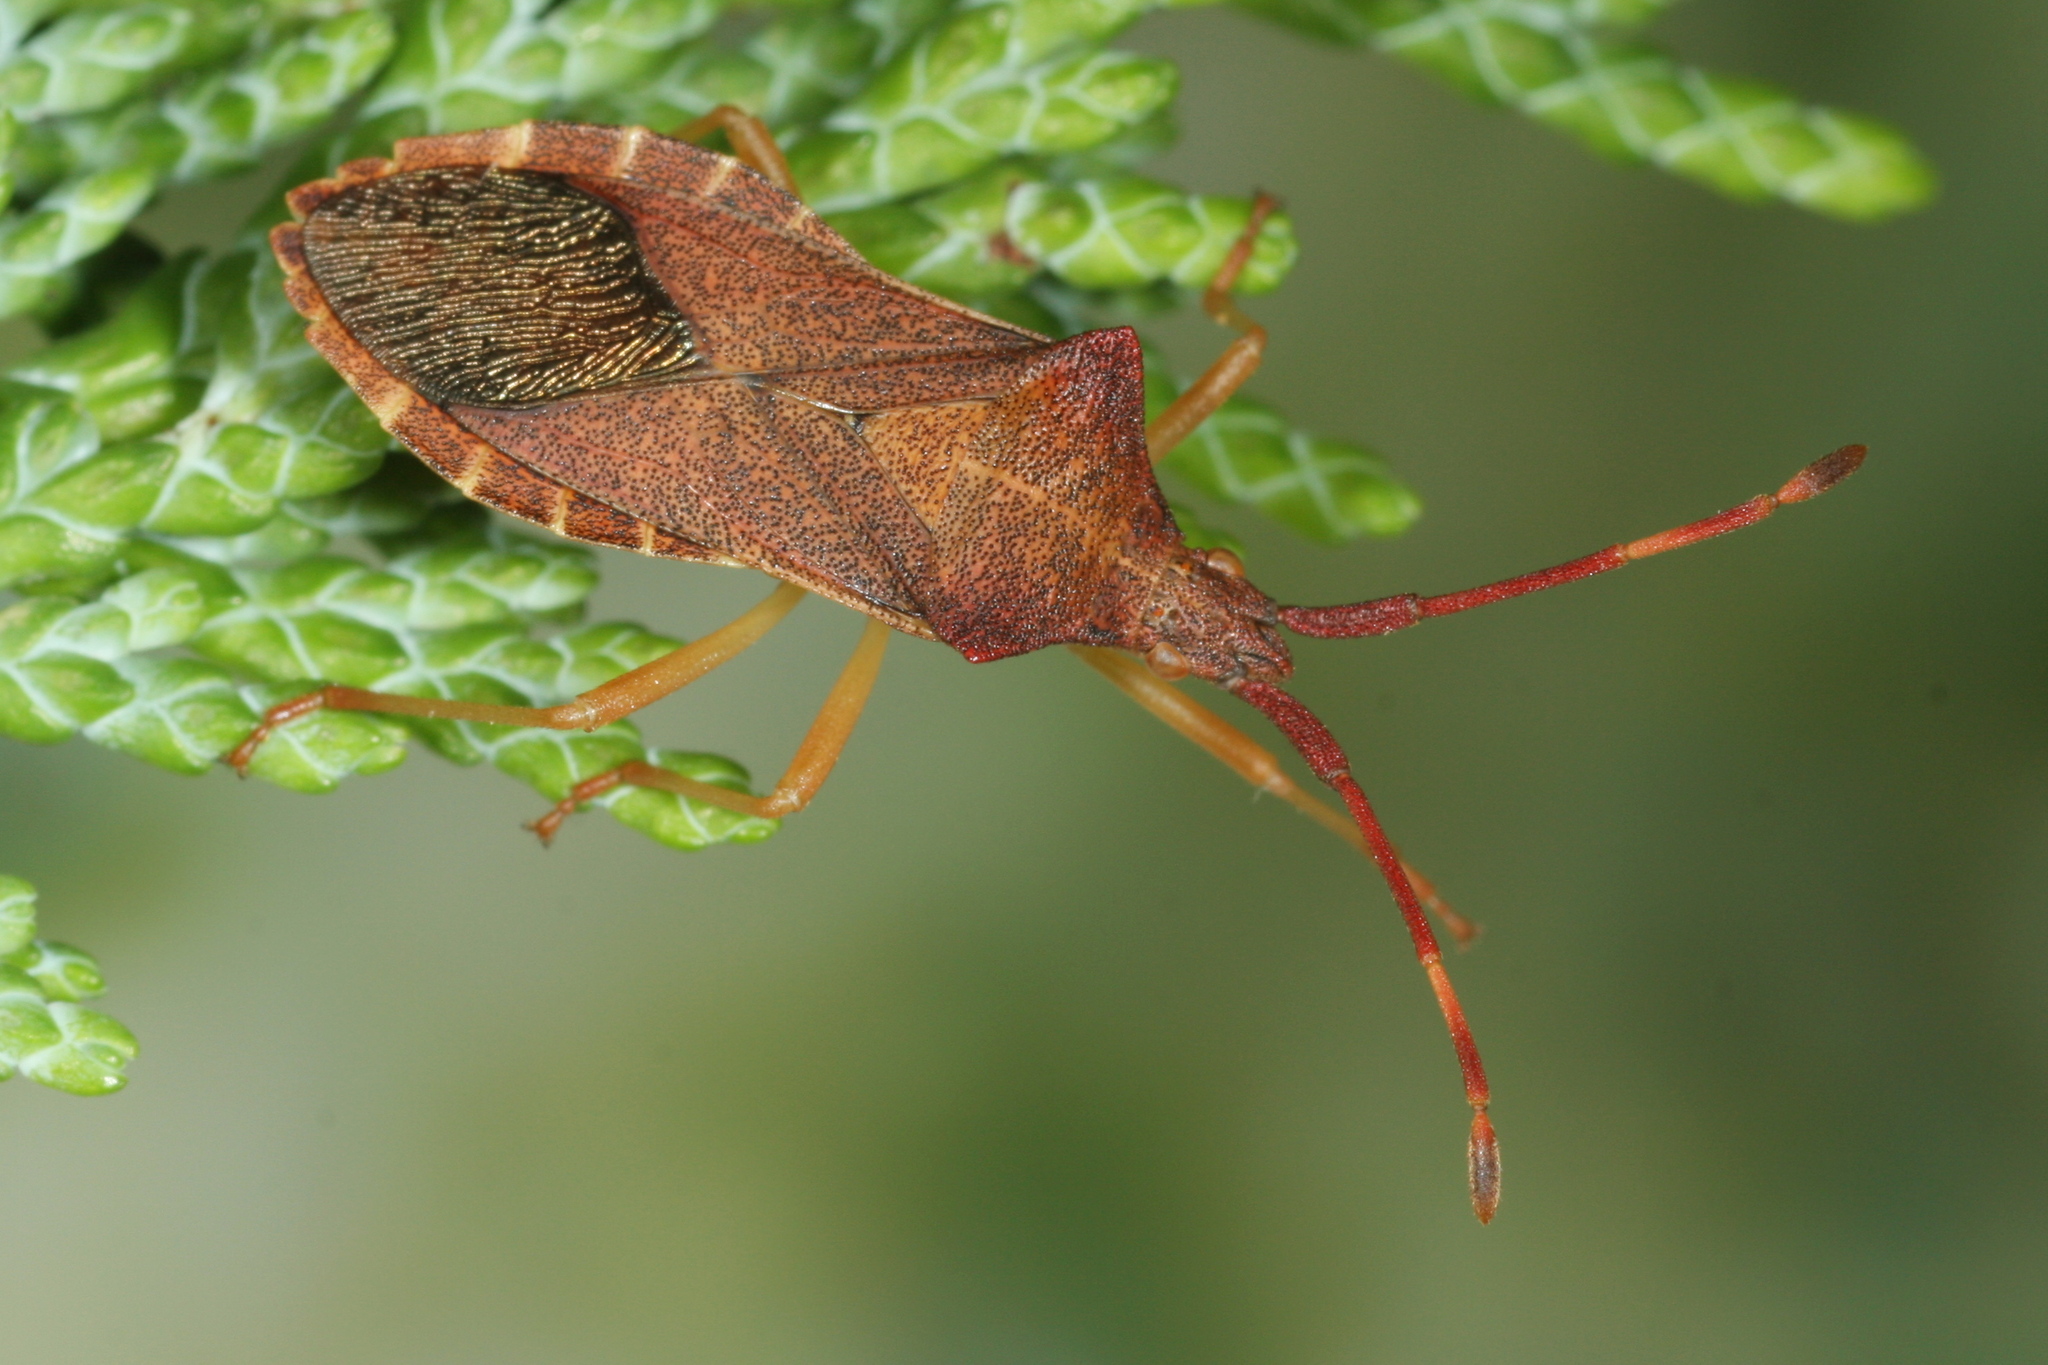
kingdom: Animalia
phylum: Arthropoda
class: Insecta
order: Hemiptera
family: Coreidae
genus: Gonocerus
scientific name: Gonocerus acuteangulatus
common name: Box bug
